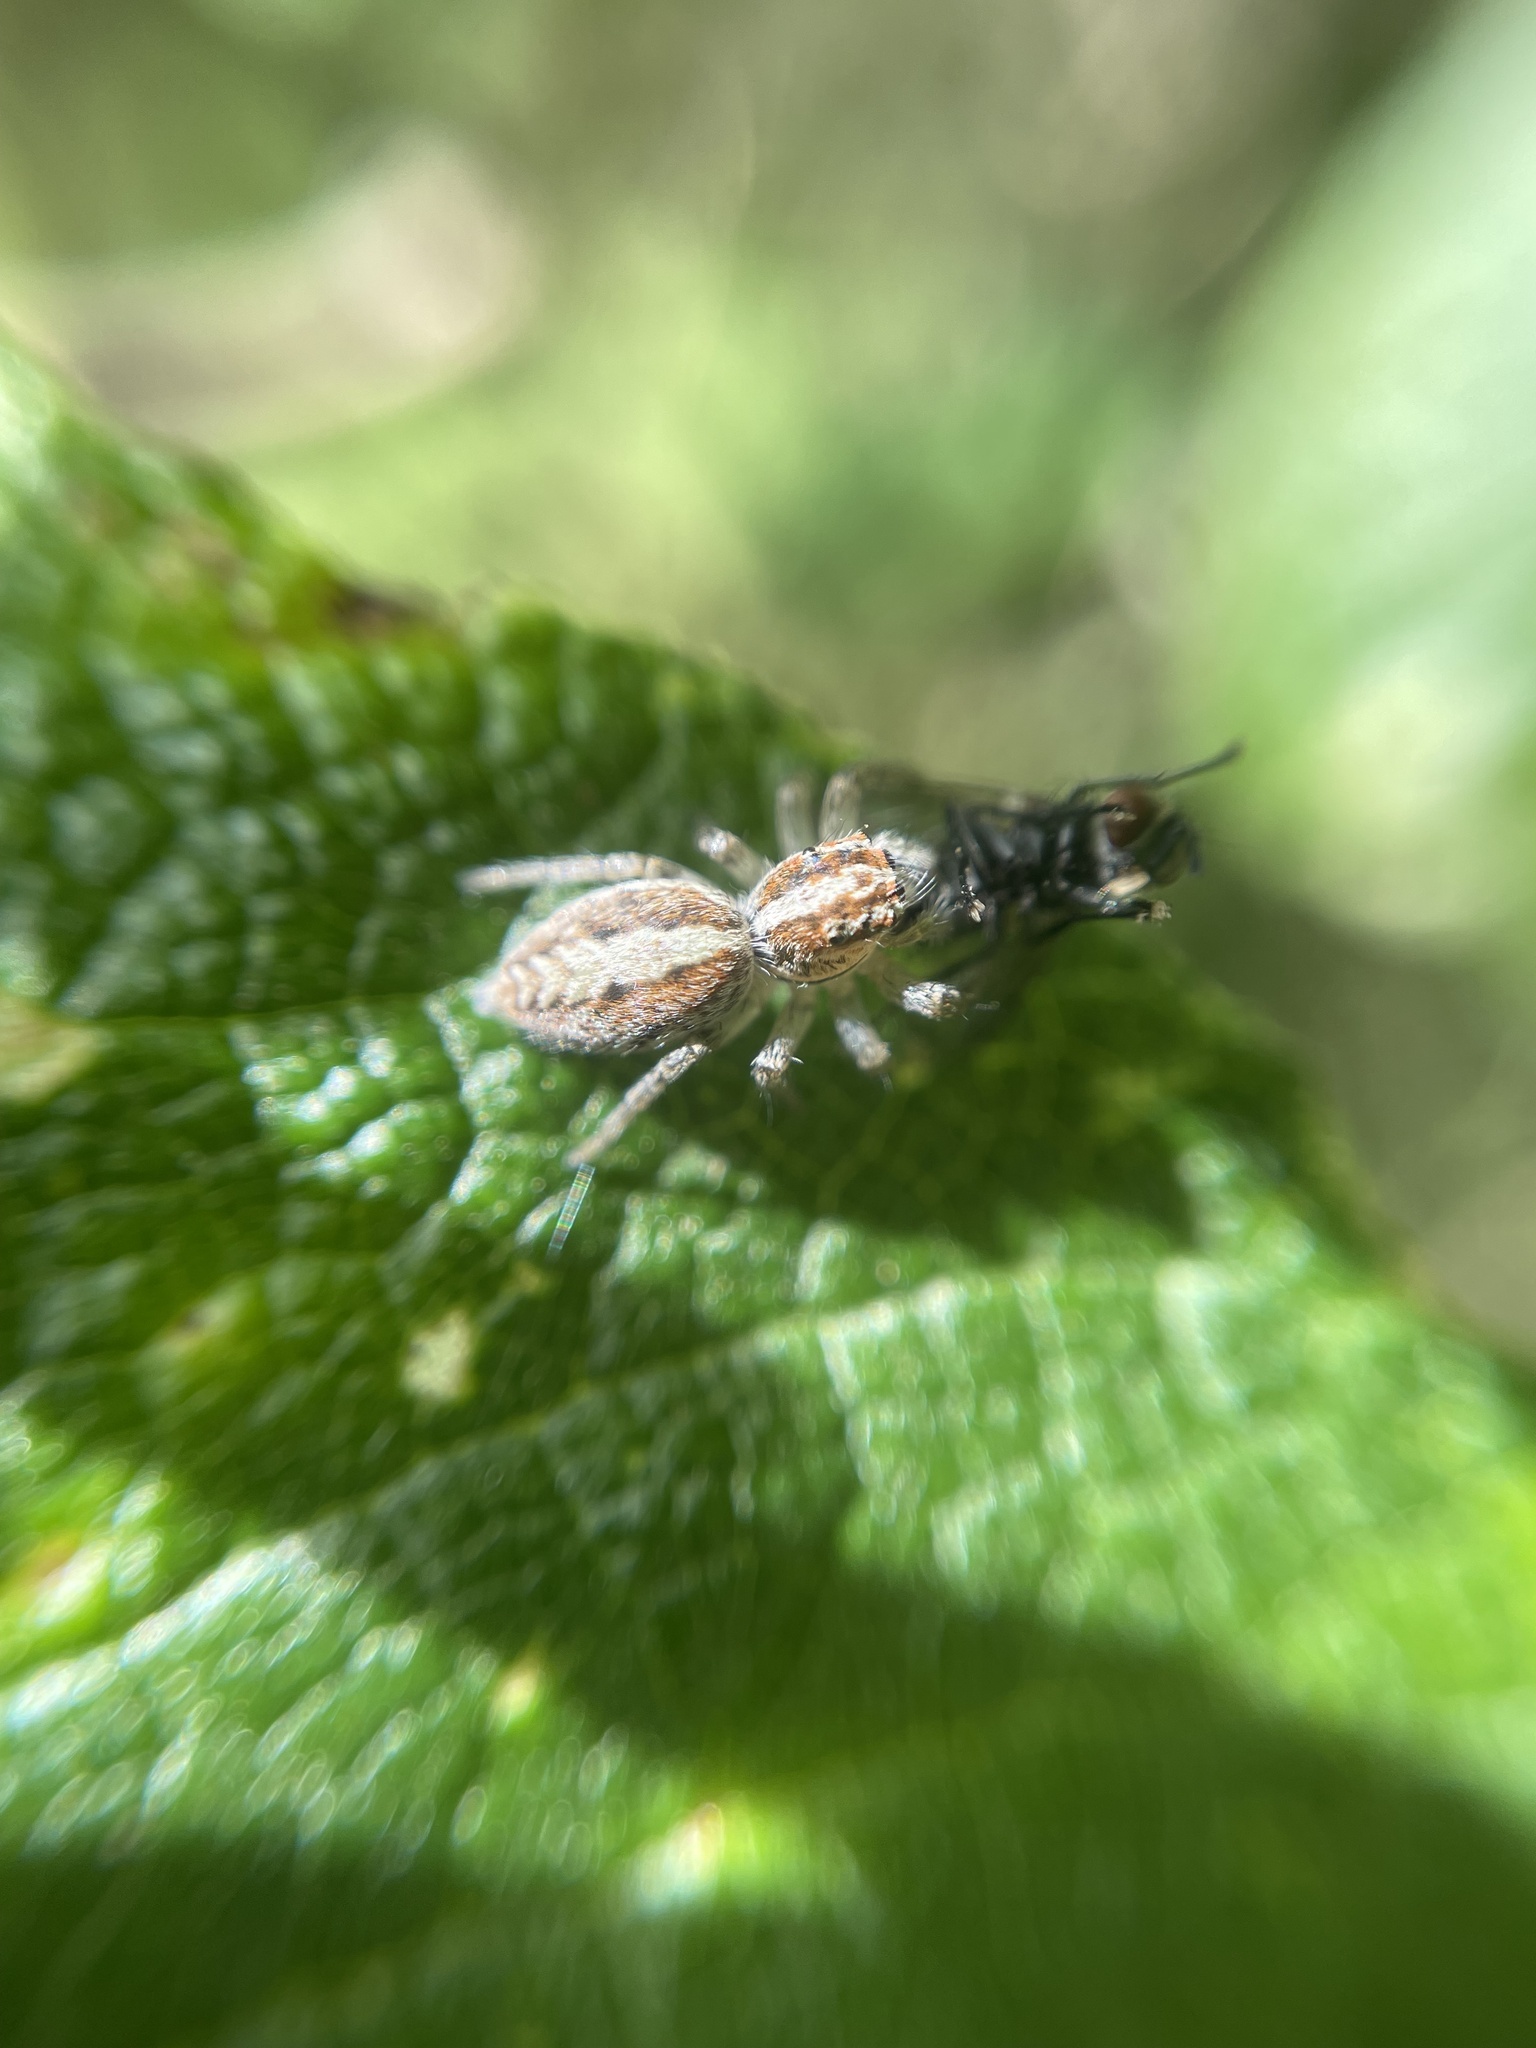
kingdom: Animalia
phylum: Arthropoda
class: Arachnida
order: Araneae
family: Salticidae
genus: Frigga
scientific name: Frigga crocuta
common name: Jumping spiders
